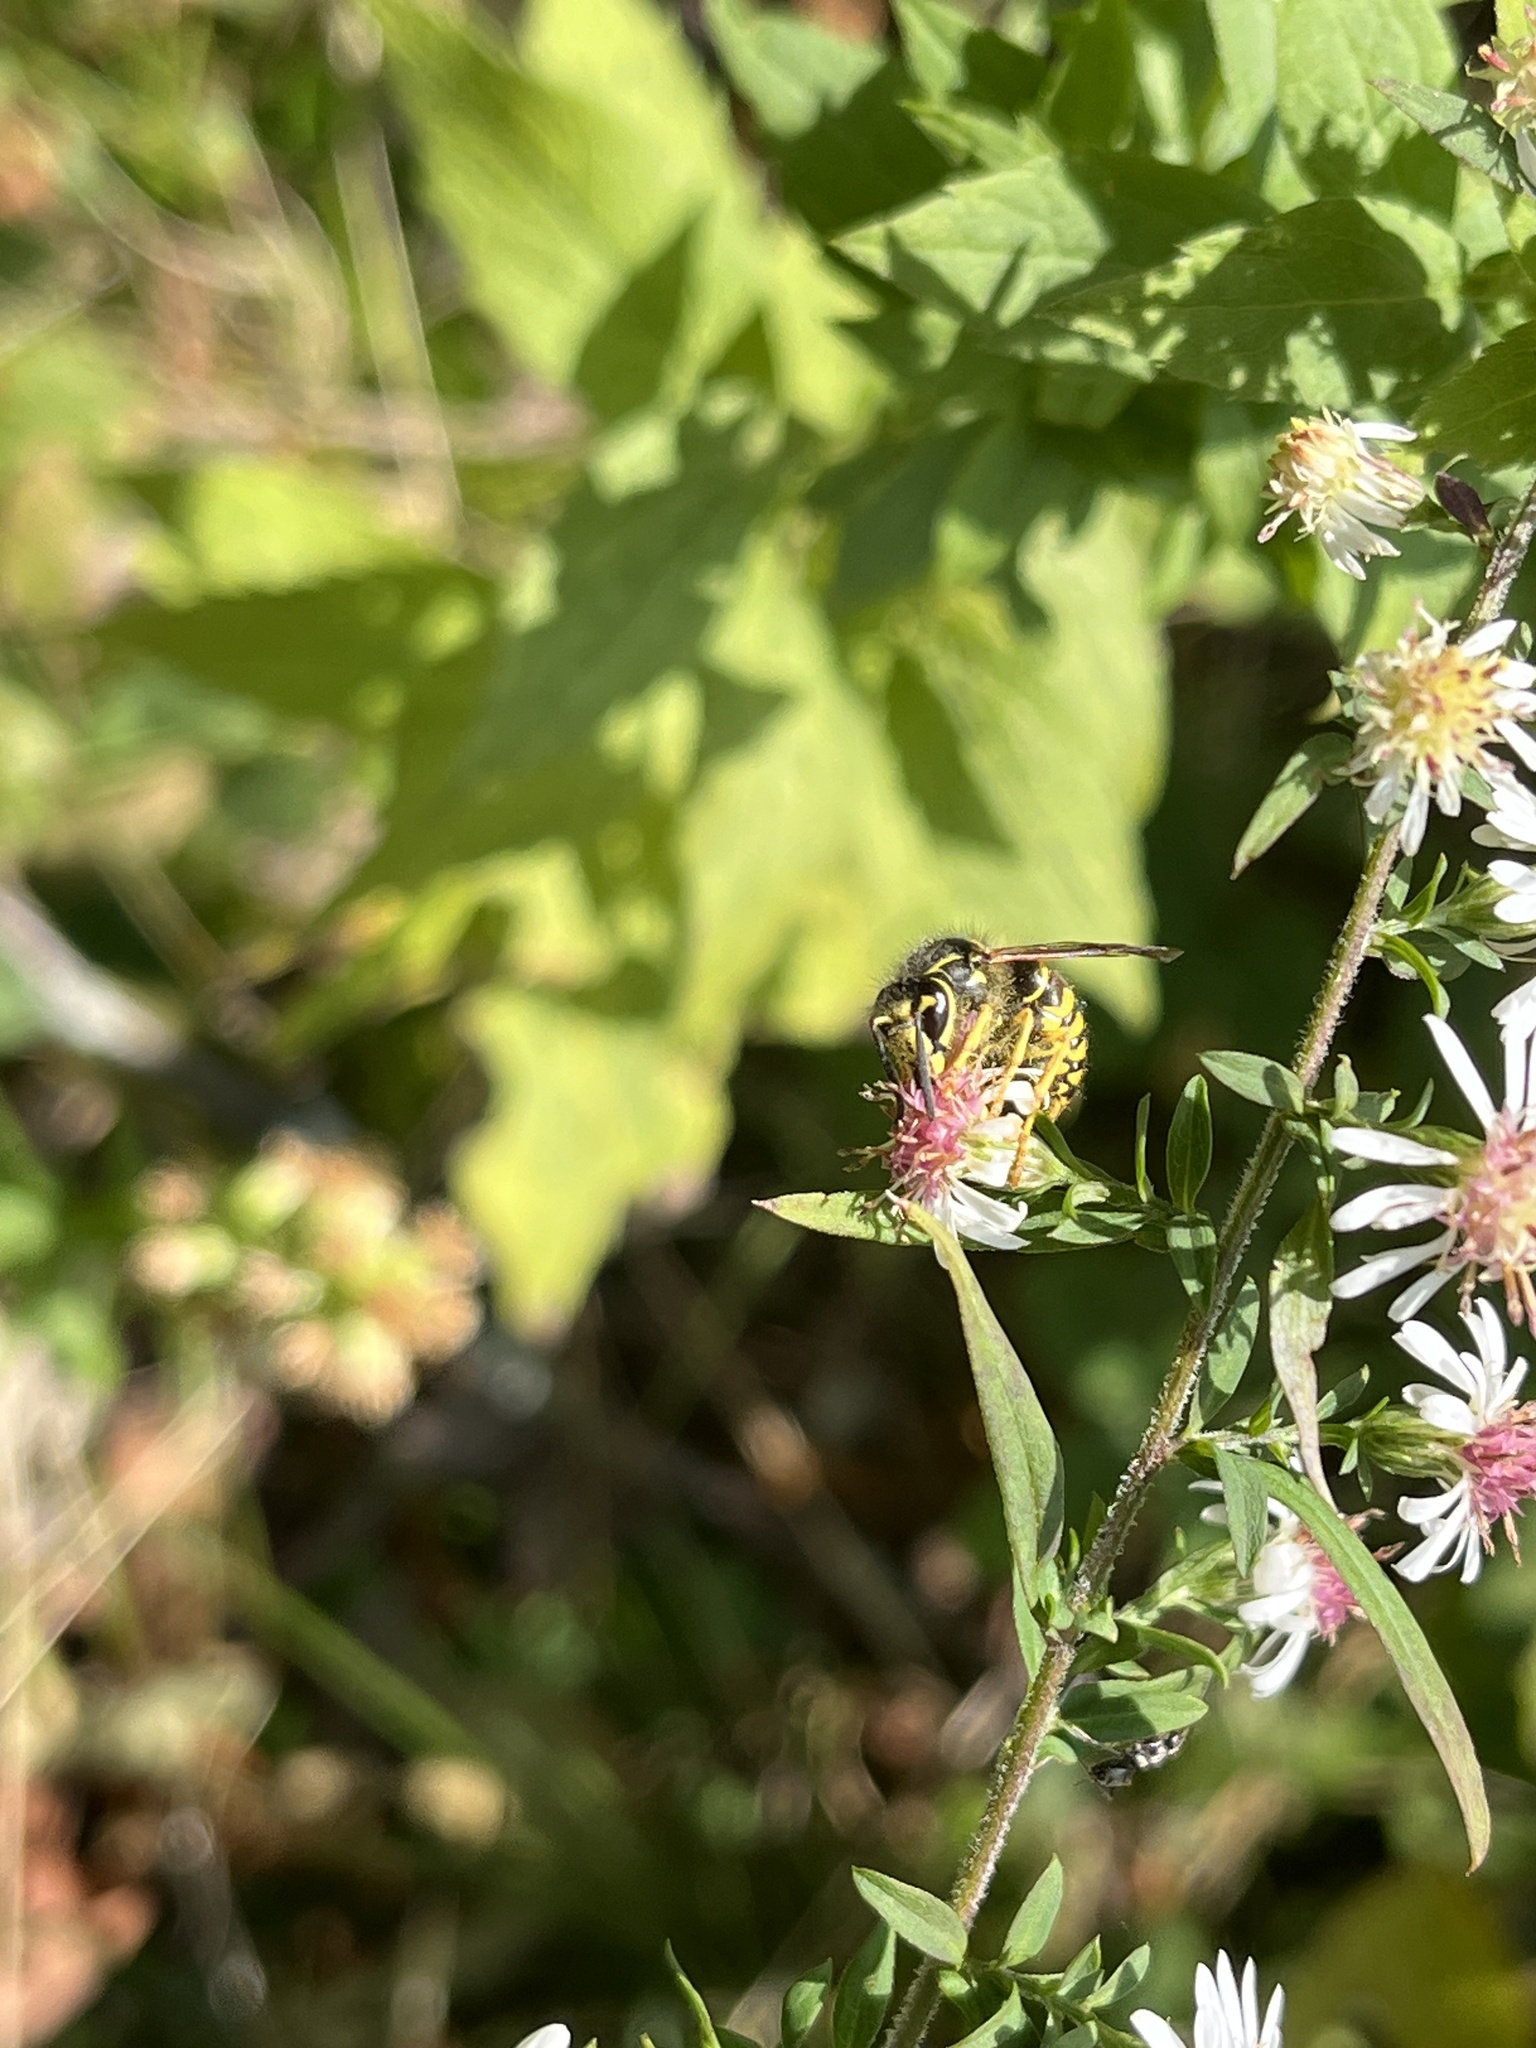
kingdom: Animalia
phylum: Arthropoda
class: Insecta
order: Hymenoptera
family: Vespidae
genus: Dolichovespula
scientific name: Dolichovespula arenaria
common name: Aerial yellowjacket
